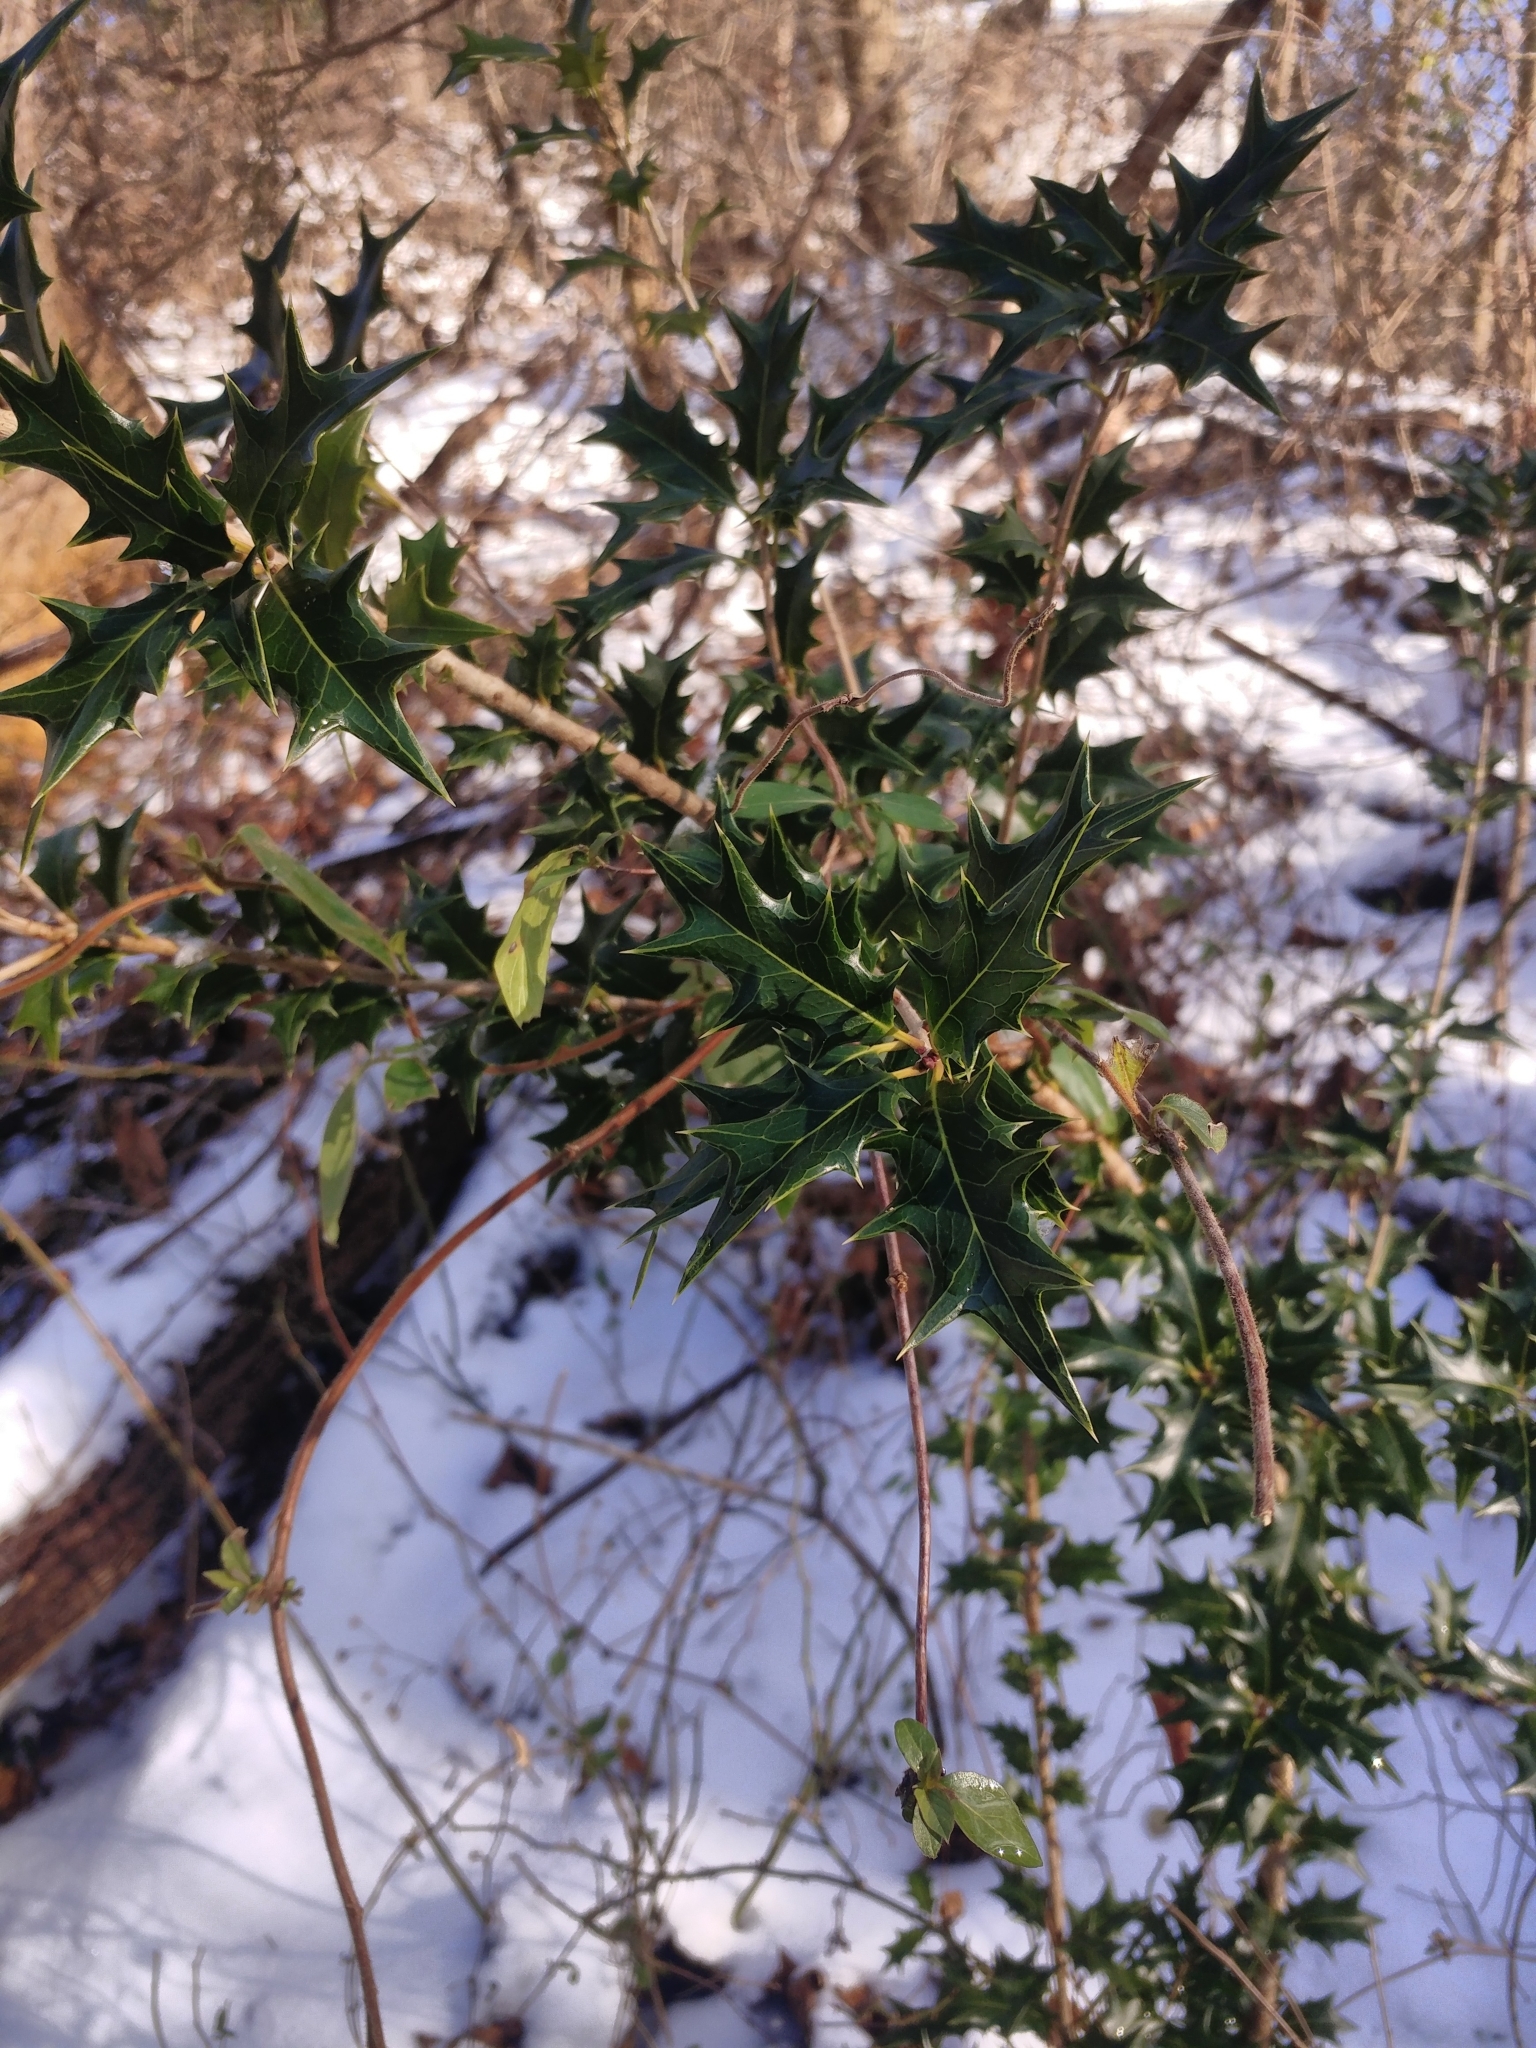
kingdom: Plantae
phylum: Tracheophyta
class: Magnoliopsida
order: Lamiales
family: Oleaceae
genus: Osmanthus
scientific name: Osmanthus heterophyllus
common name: Holly osmanthus
